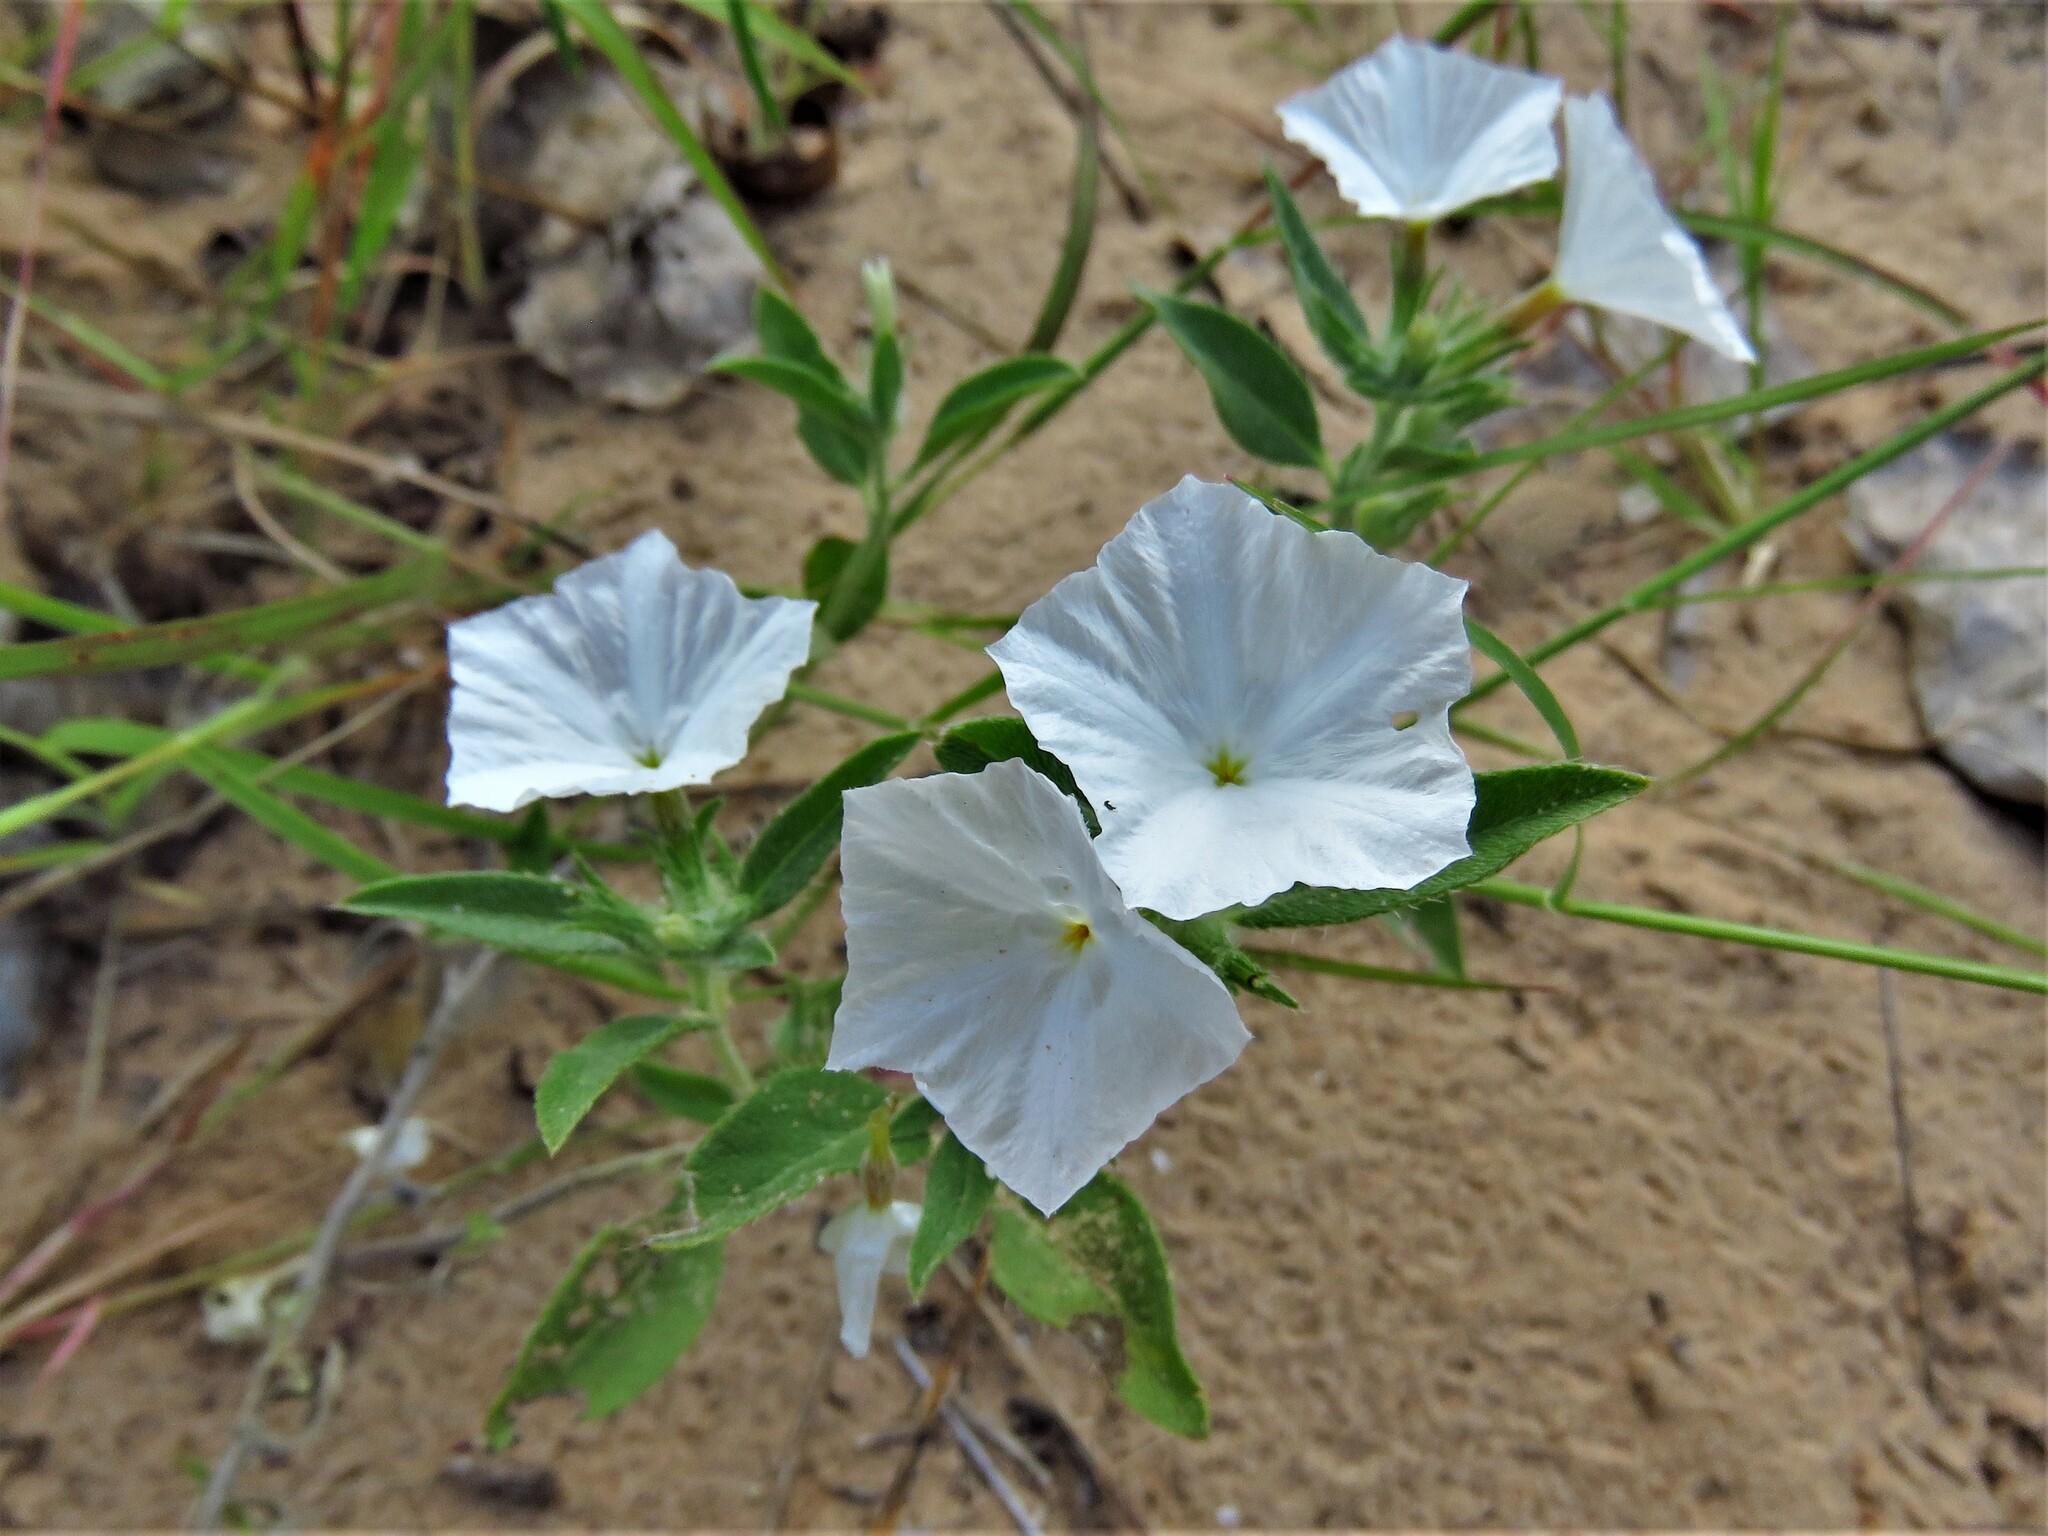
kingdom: Plantae
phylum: Tracheophyta
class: Magnoliopsida
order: Boraginales
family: Heliotropiaceae
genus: Euploca
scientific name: Euploca convolvulacea
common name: Bindweed heliotrope
